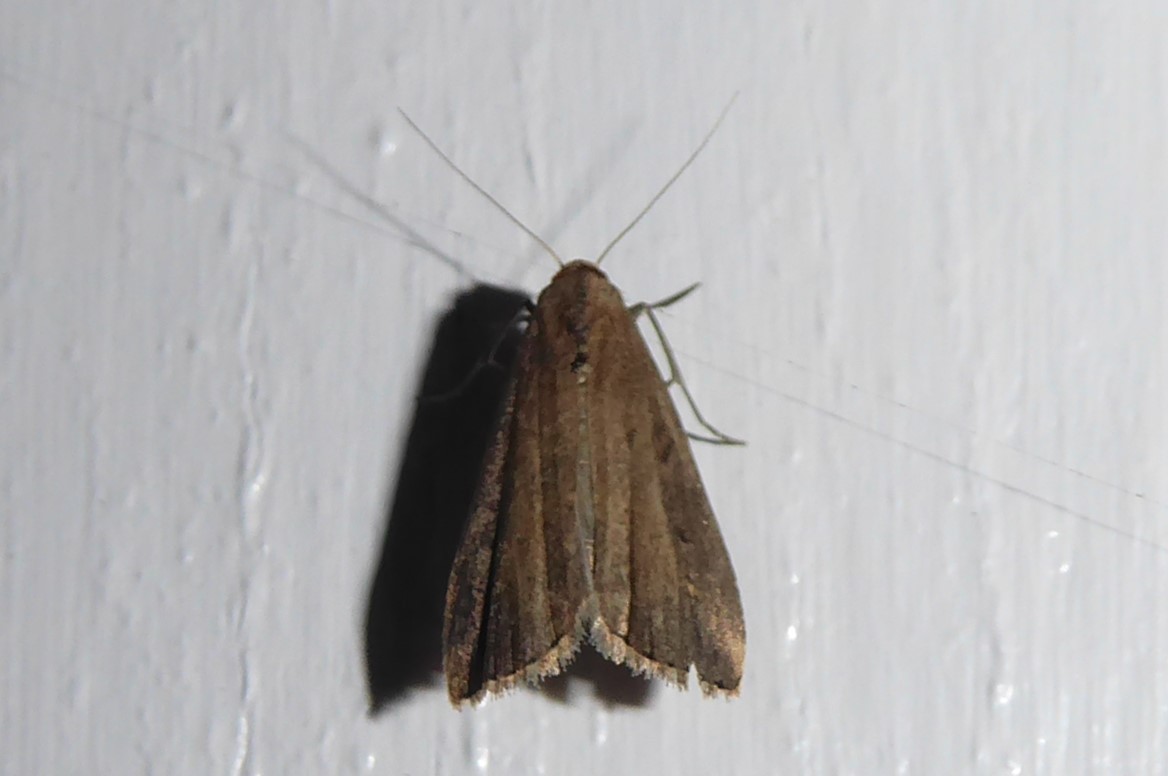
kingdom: Animalia
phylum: Arthropoda
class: Insecta
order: Lepidoptera
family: Erebidae
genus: Schrankia
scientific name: Schrankia costaestrigalis
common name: Pinion-streaked snout
